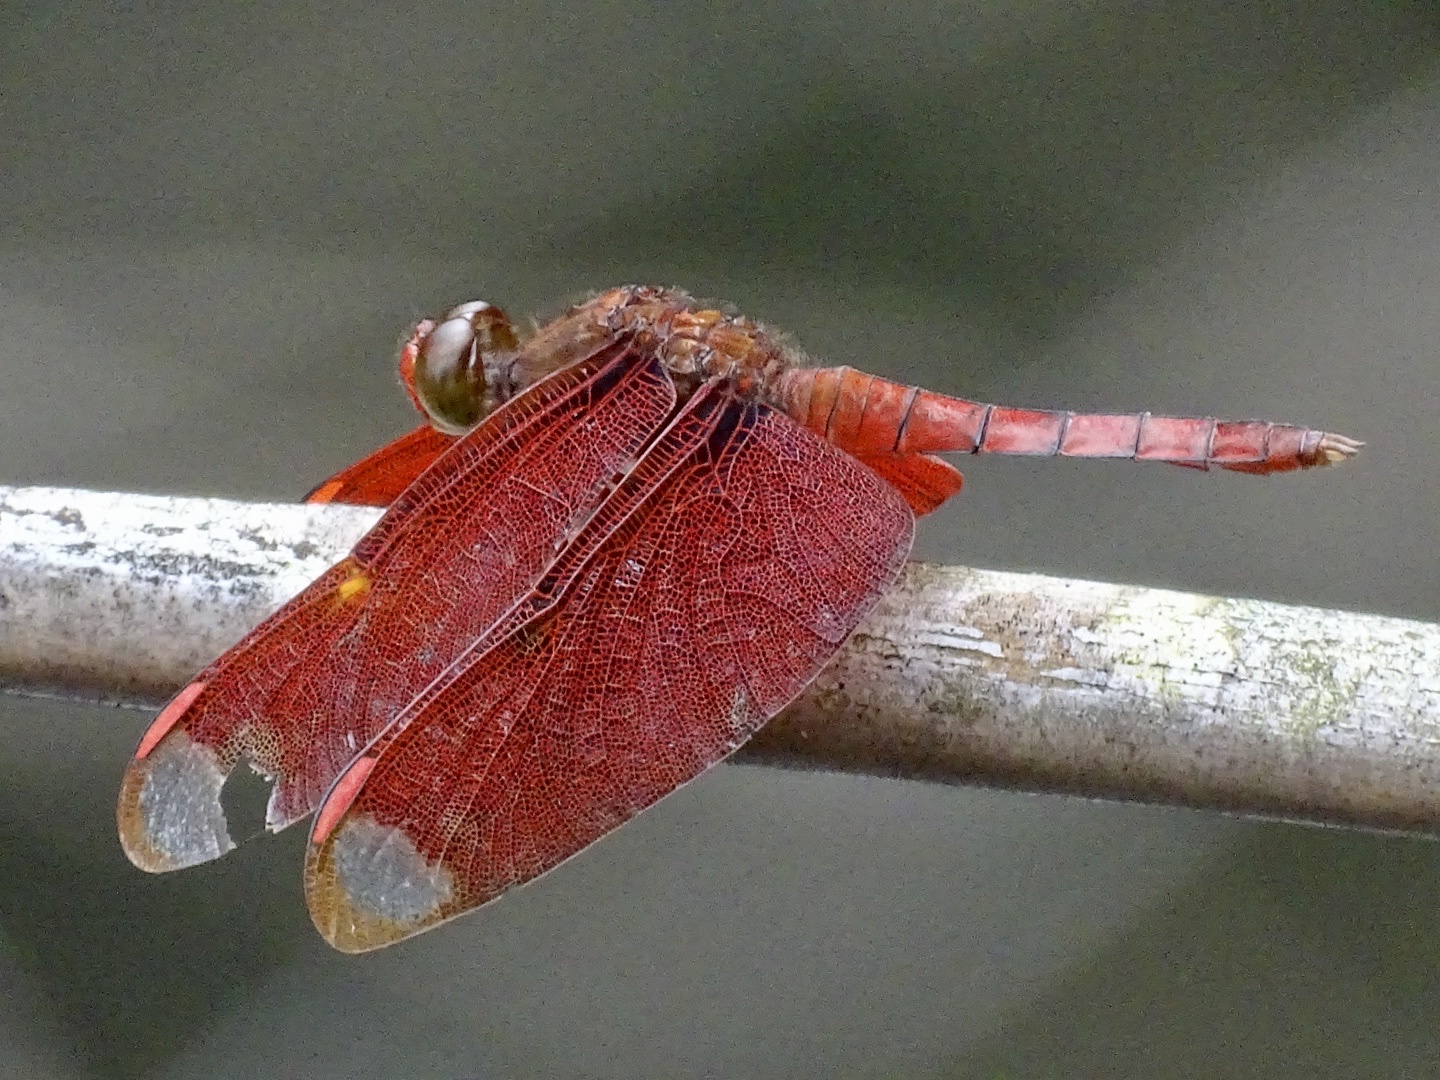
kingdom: Animalia
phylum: Arthropoda
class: Insecta
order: Odonata
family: Libellulidae
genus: Neurothemis
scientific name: Neurothemis fulvia
